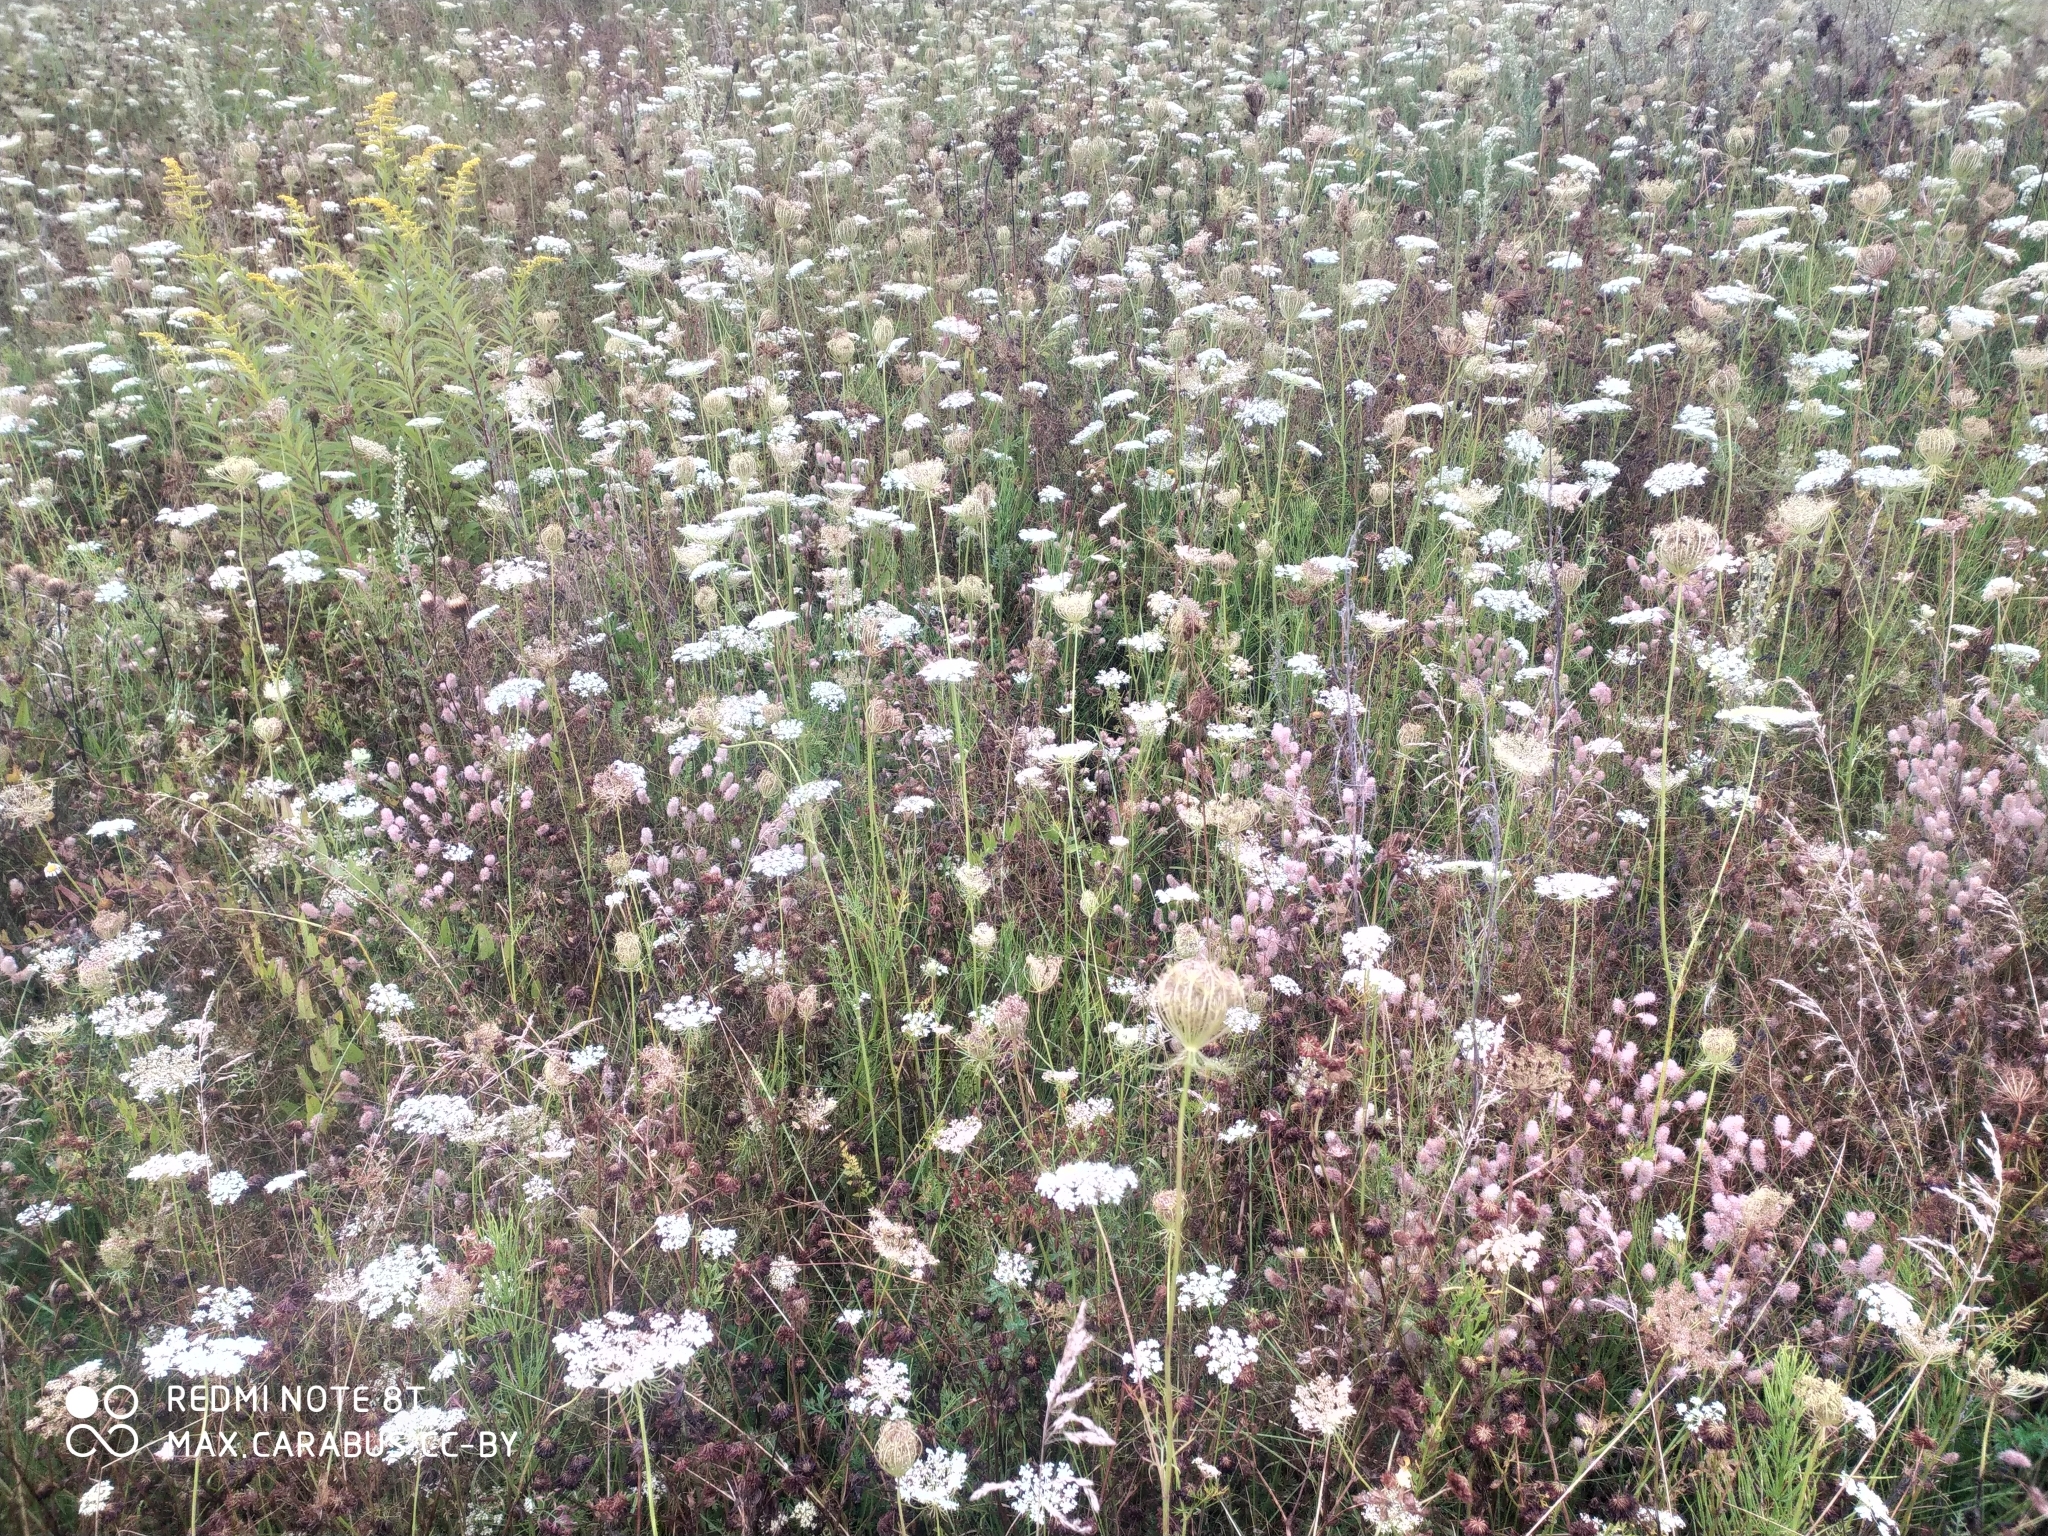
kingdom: Plantae
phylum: Tracheophyta
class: Magnoliopsida
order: Apiales
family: Apiaceae
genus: Daucus
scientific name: Daucus carota
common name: Wild carrot
